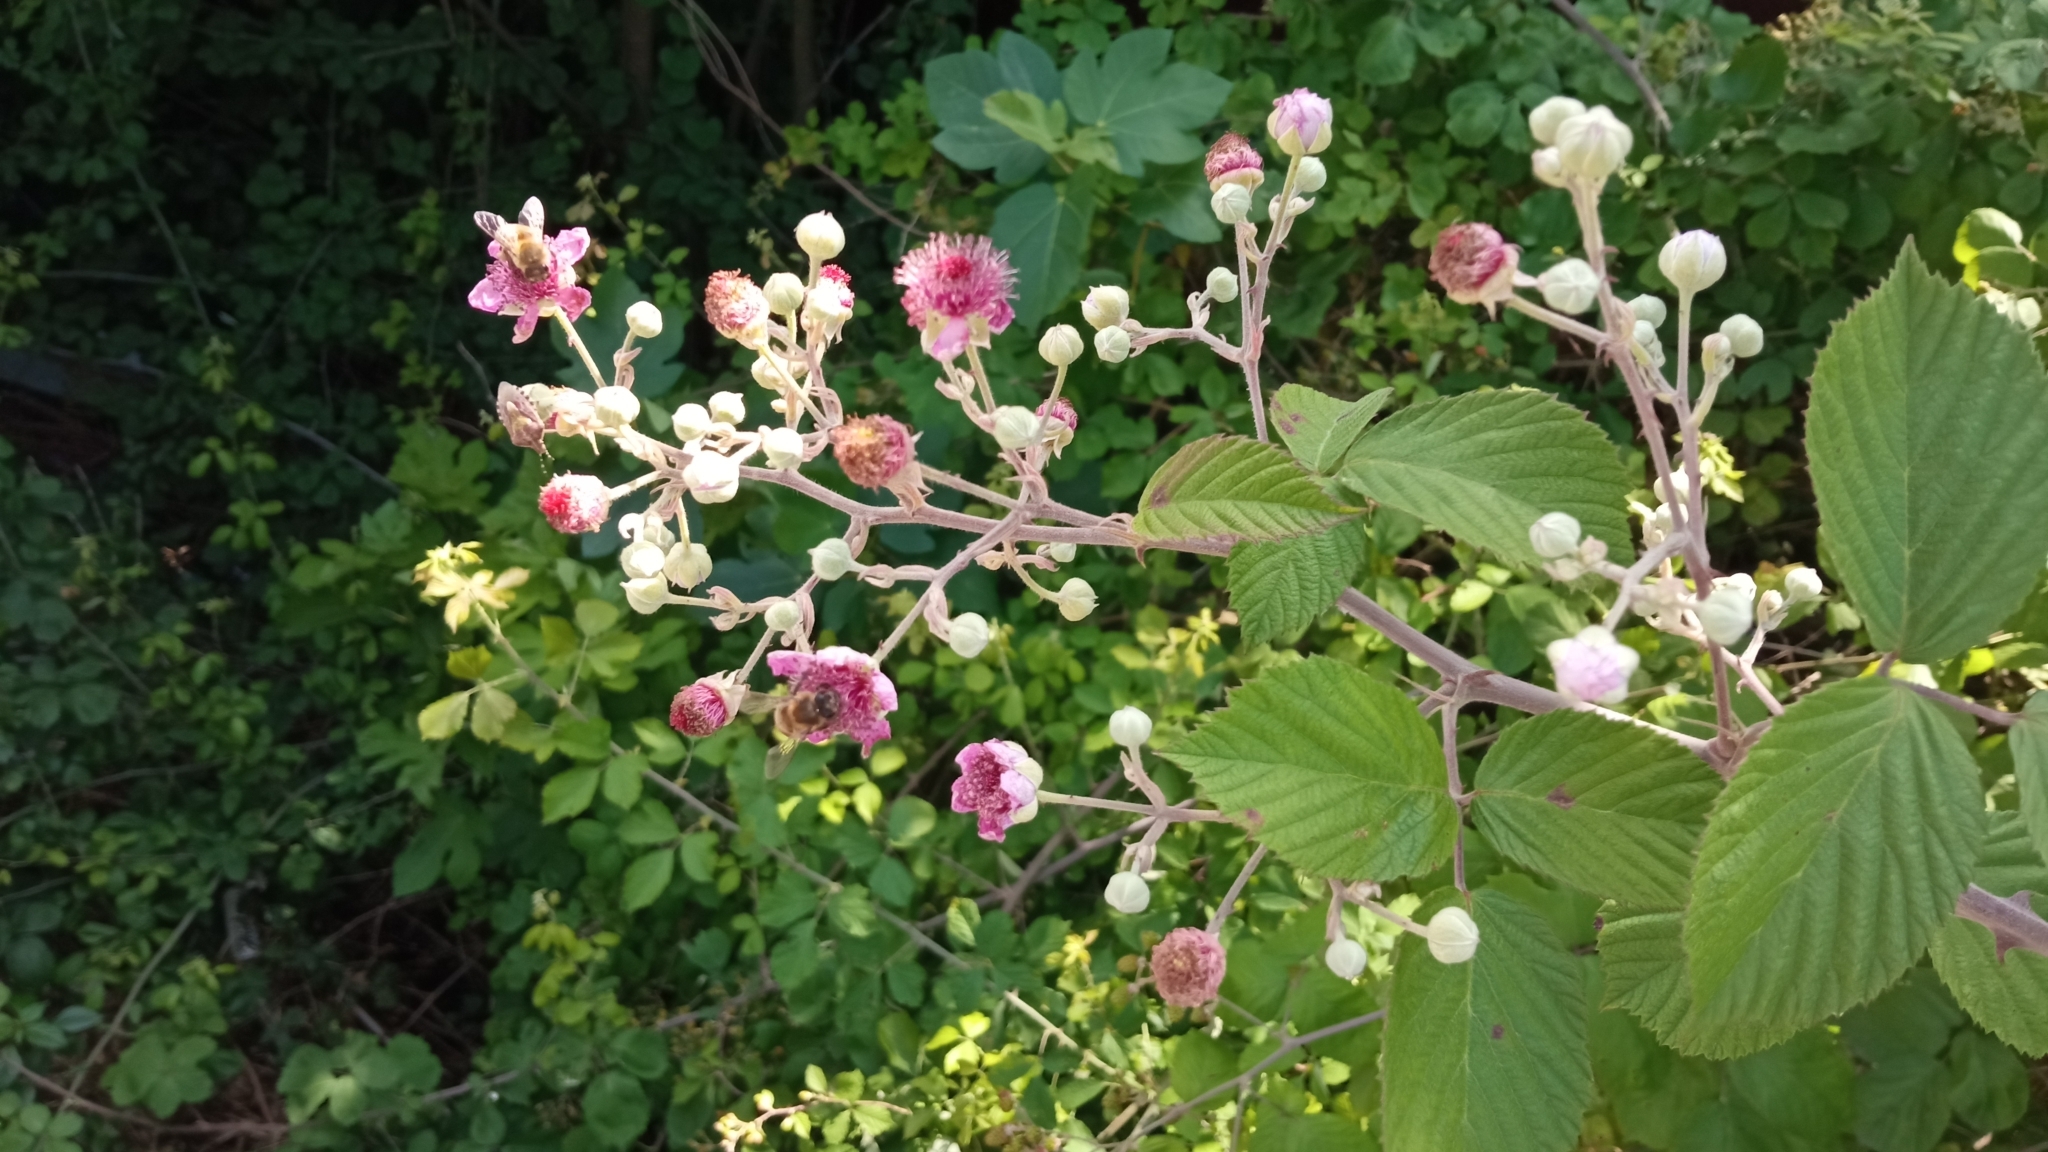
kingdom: Plantae
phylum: Tracheophyta
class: Magnoliopsida
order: Rosales
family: Rosaceae
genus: Rubus
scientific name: Rubus sanctus
